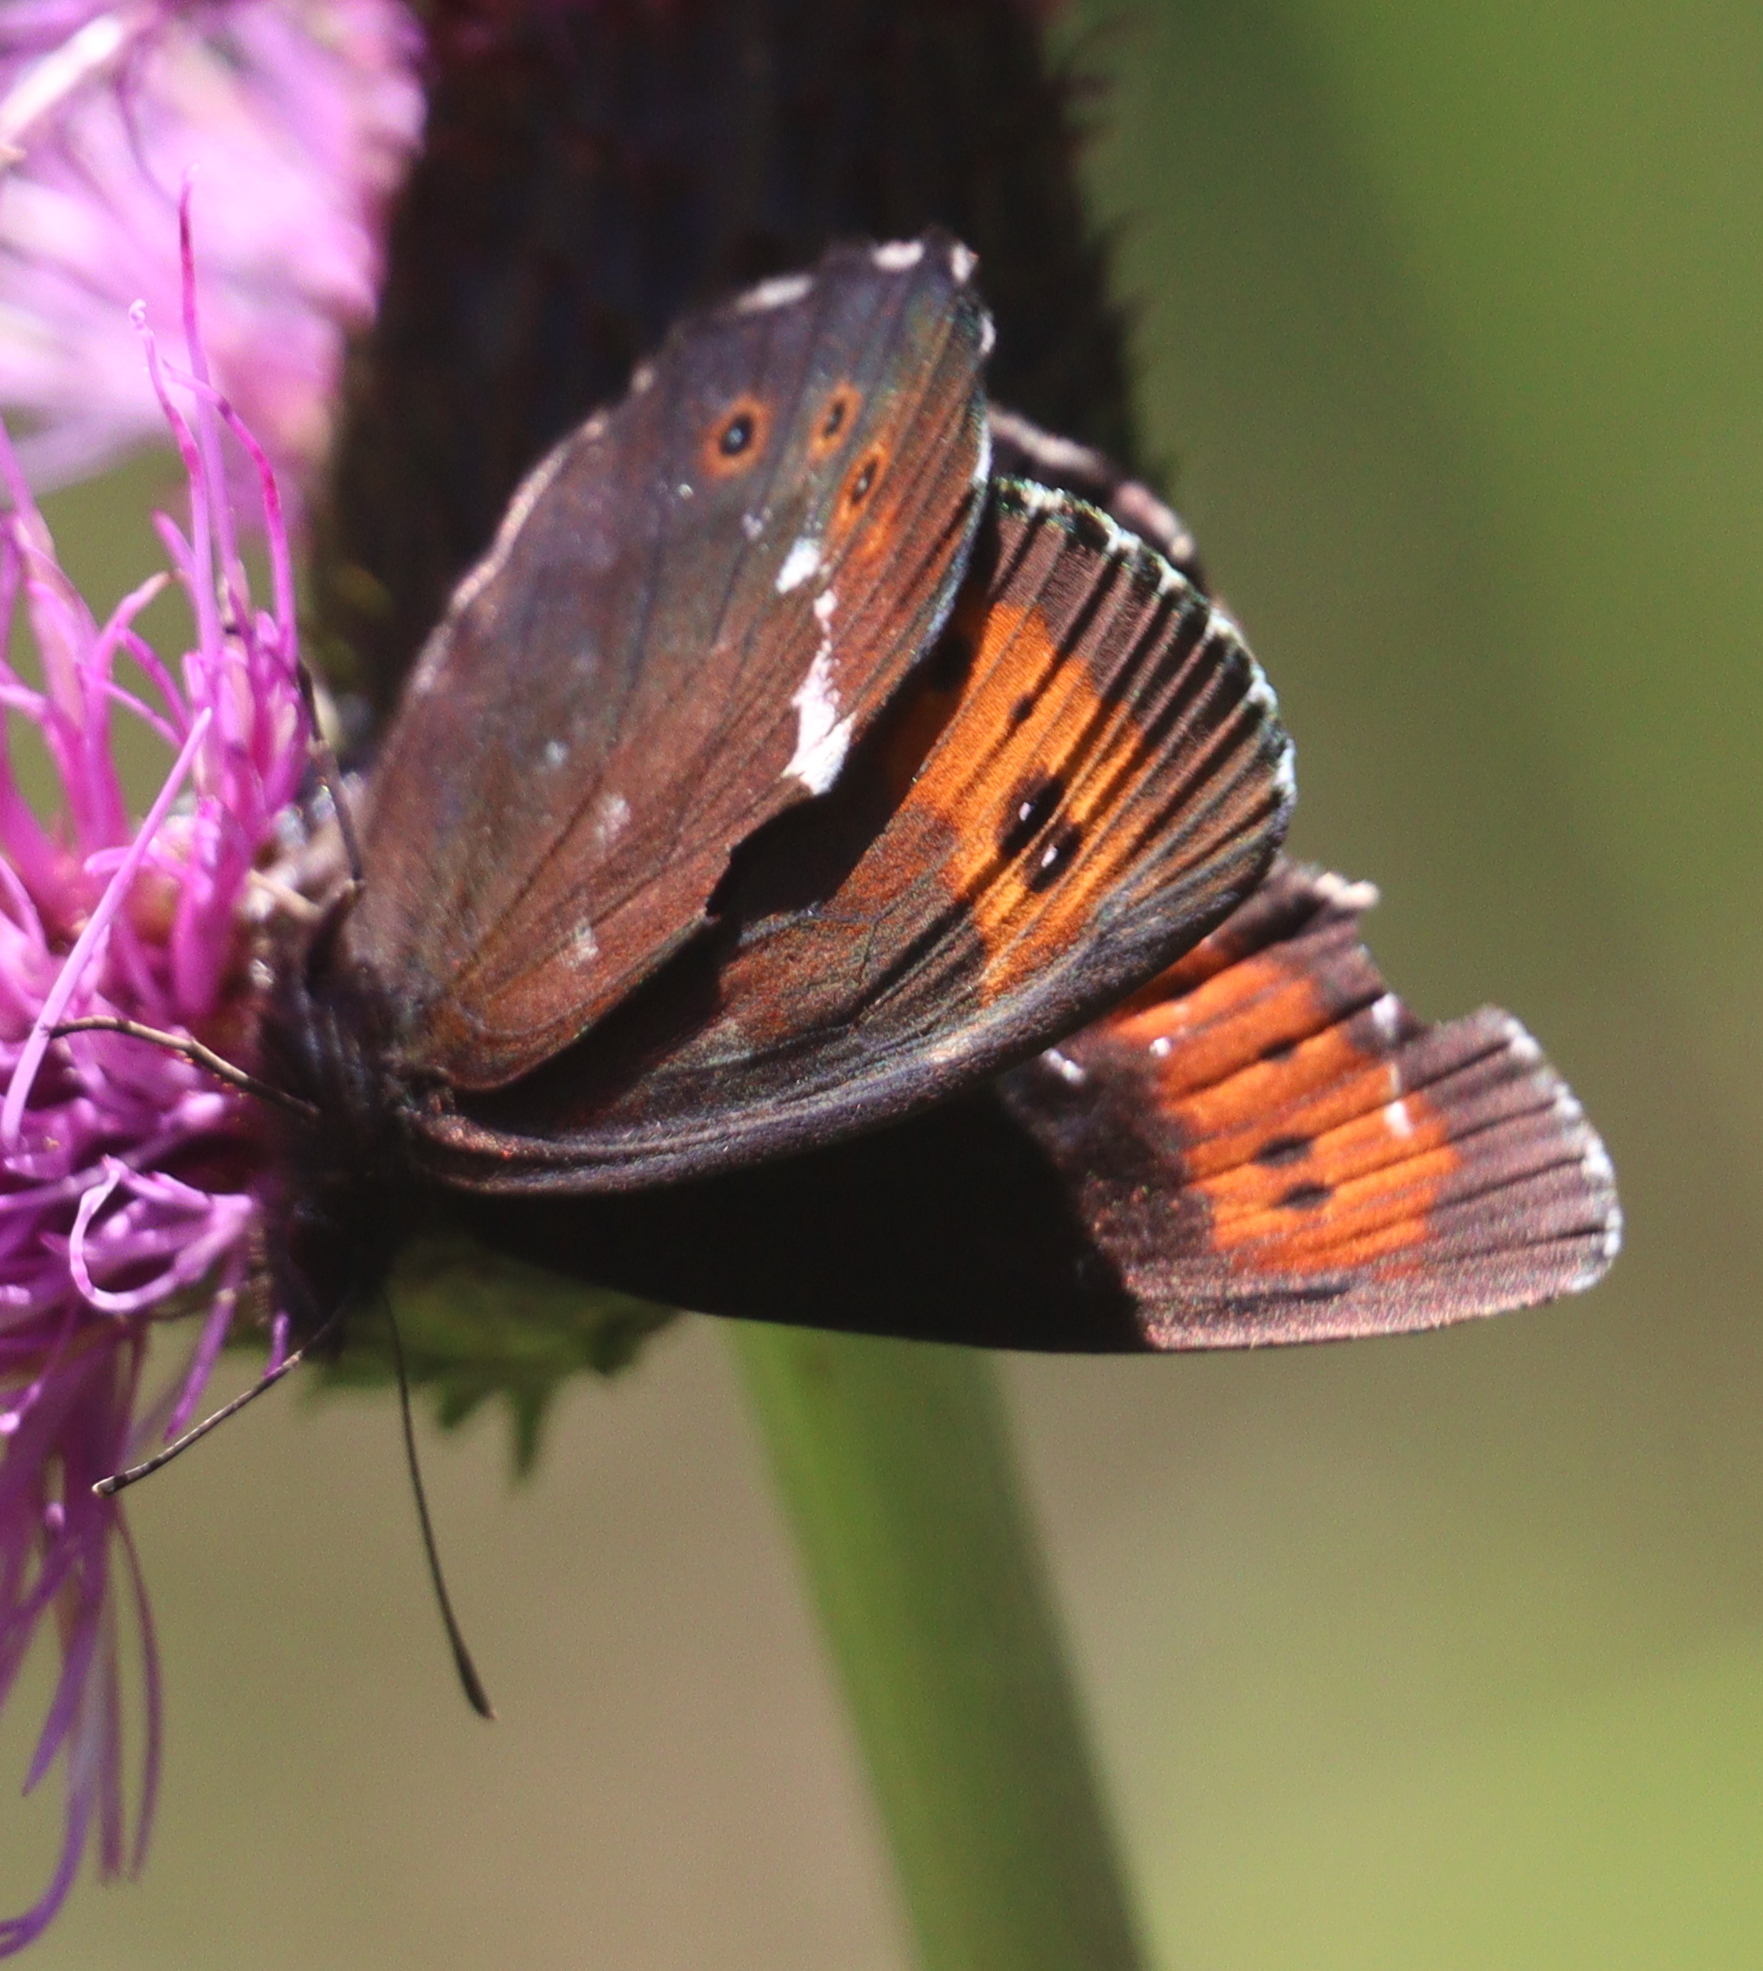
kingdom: Animalia
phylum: Arthropoda
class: Insecta
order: Lepidoptera
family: Nymphalidae
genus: Erebia
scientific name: Erebia ligea
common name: Arran brown
